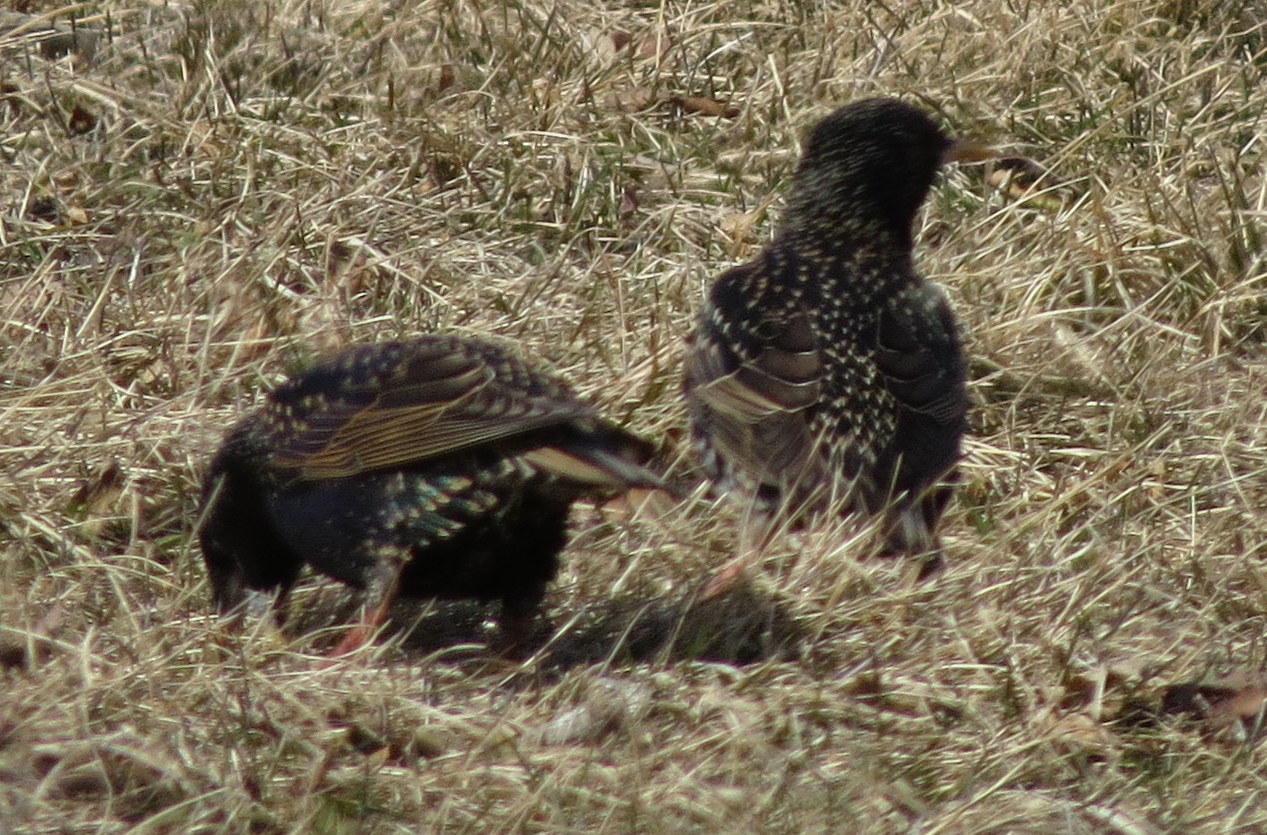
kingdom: Animalia
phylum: Chordata
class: Aves
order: Passeriformes
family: Sturnidae
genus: Sturnus
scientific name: Sturnus vulgaris
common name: Common starling
